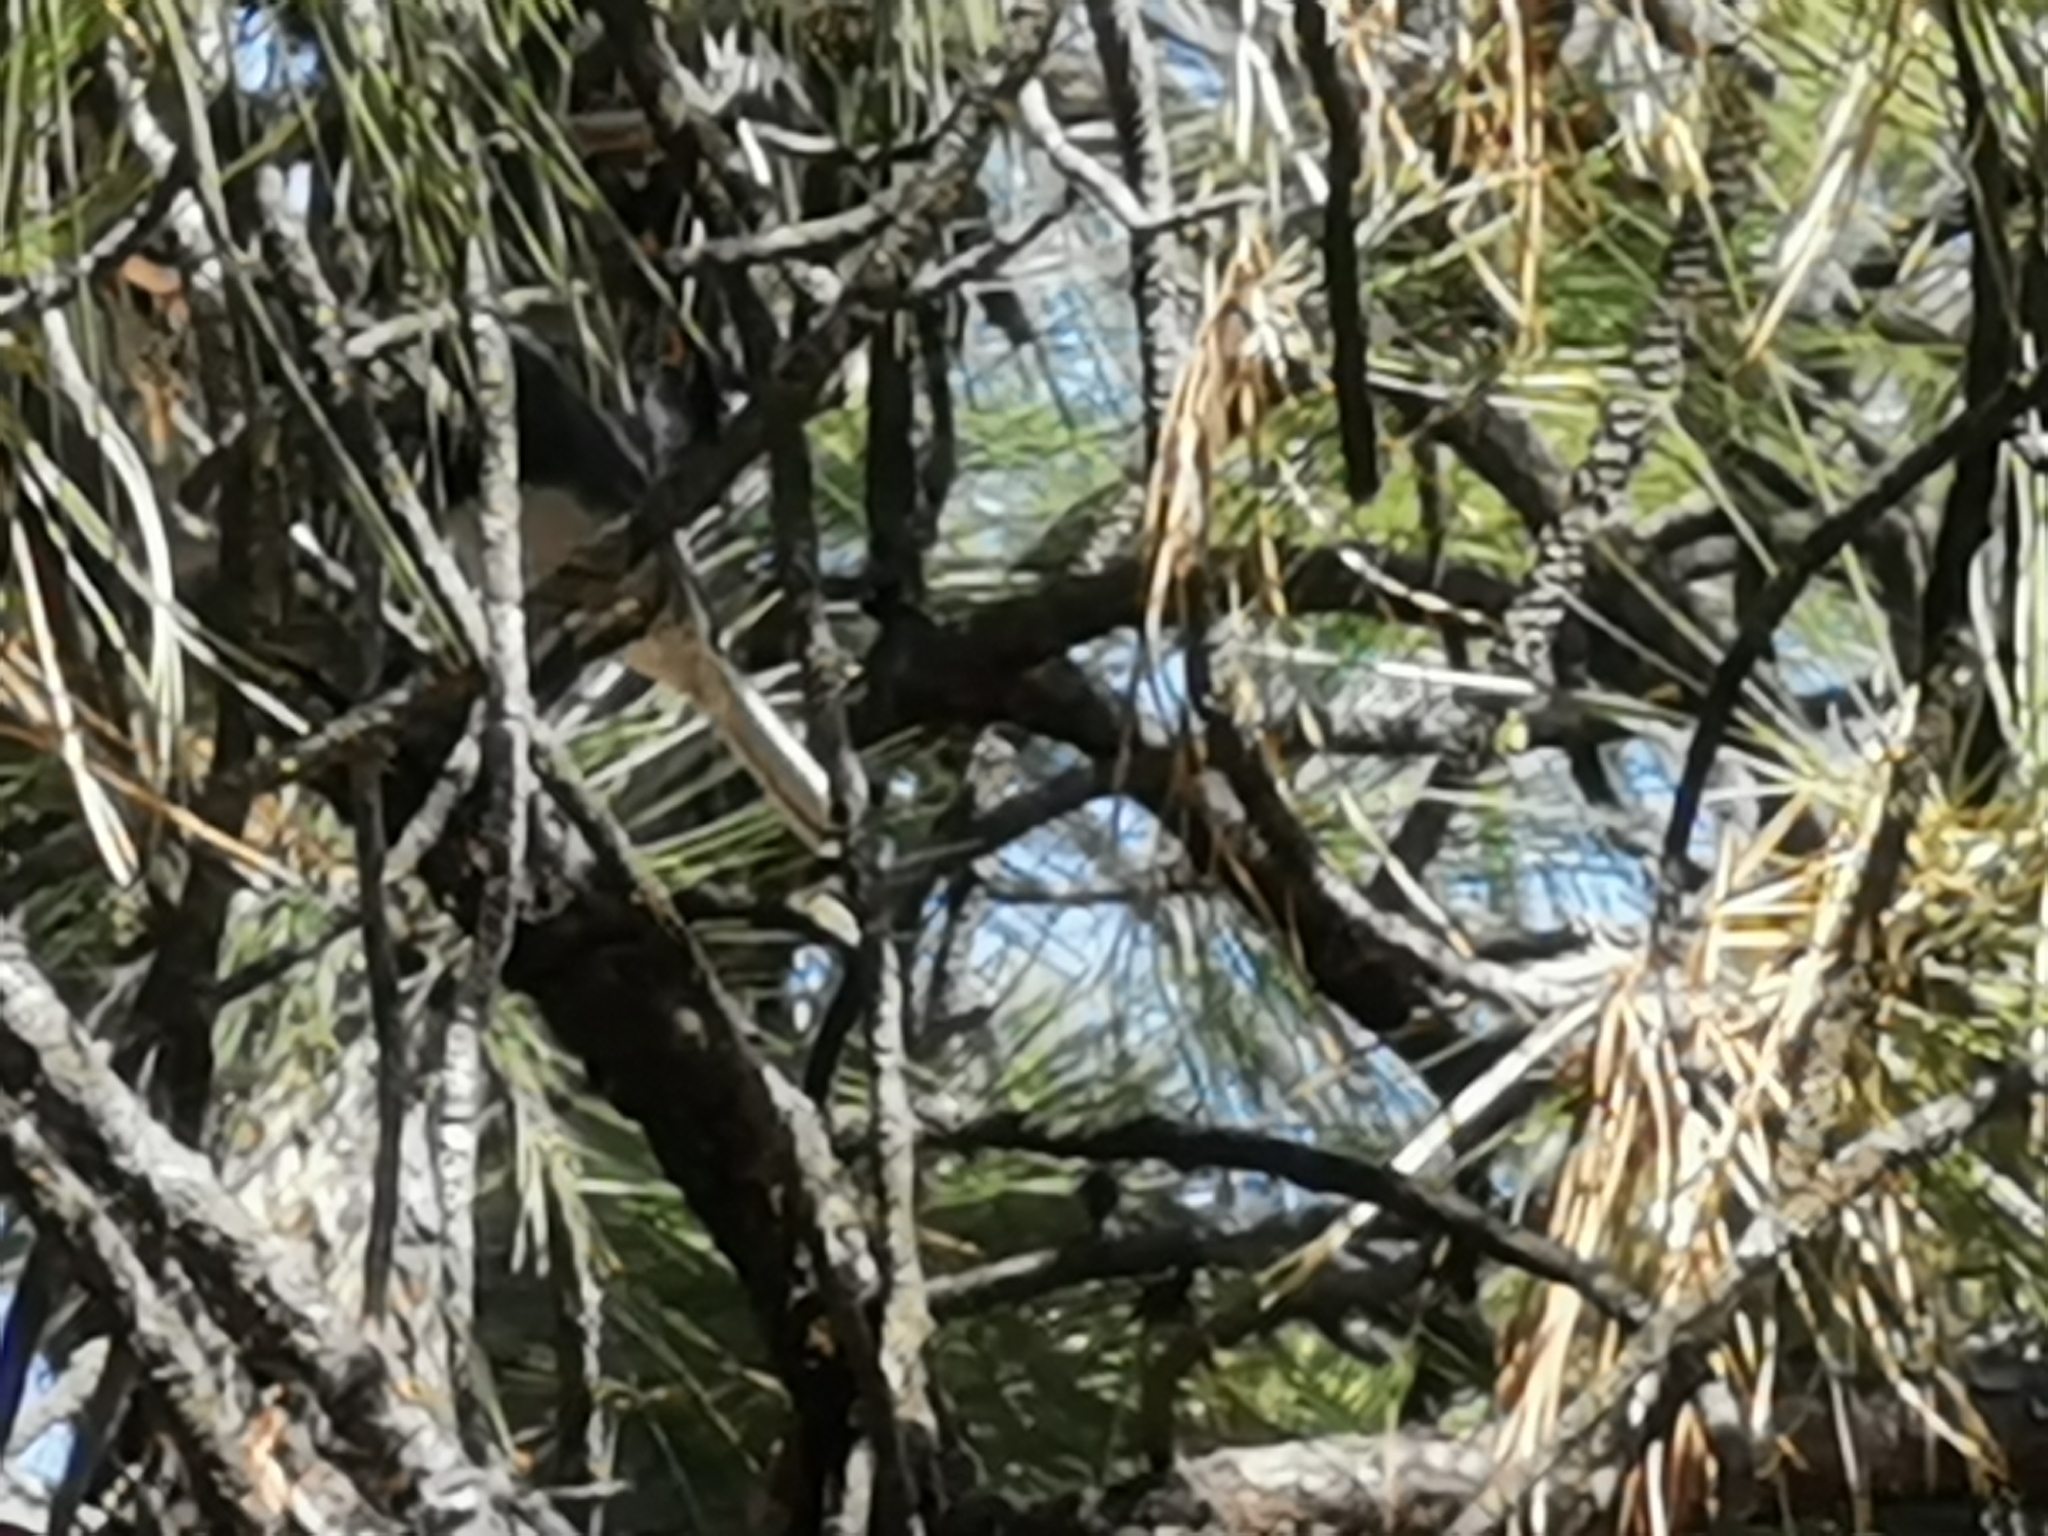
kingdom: Animalia
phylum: Chordata
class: Aves
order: Passeriformes
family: Passerellidae
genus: Junco
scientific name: Junco hyemalis
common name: Dark-eyed junco
